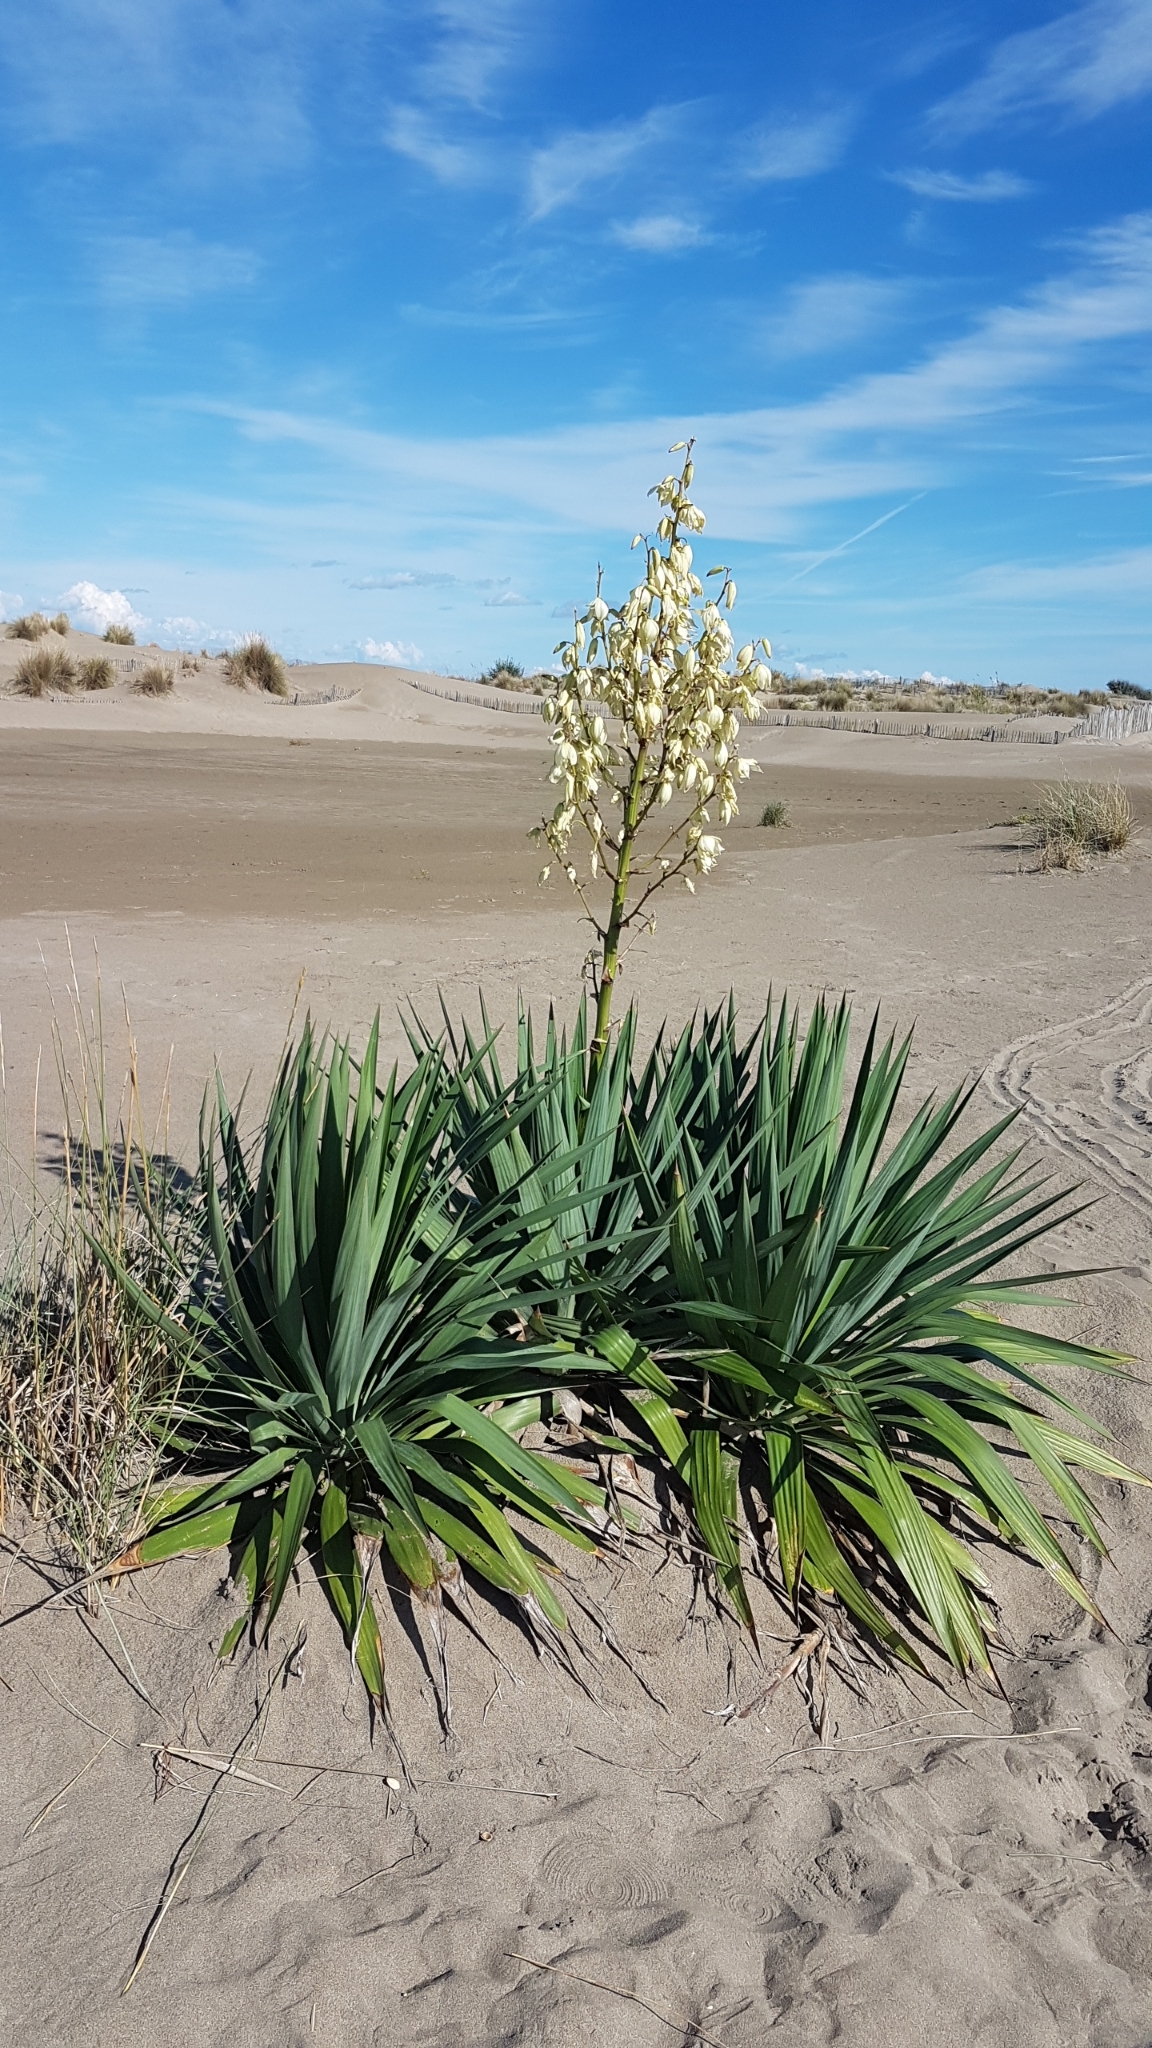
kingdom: Plantae
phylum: Tracheophyta
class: Liliopsida
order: Asparagales
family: Asparagaceae
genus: Yucca
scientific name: Yucca gloriosa
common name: Spanish-dagger
